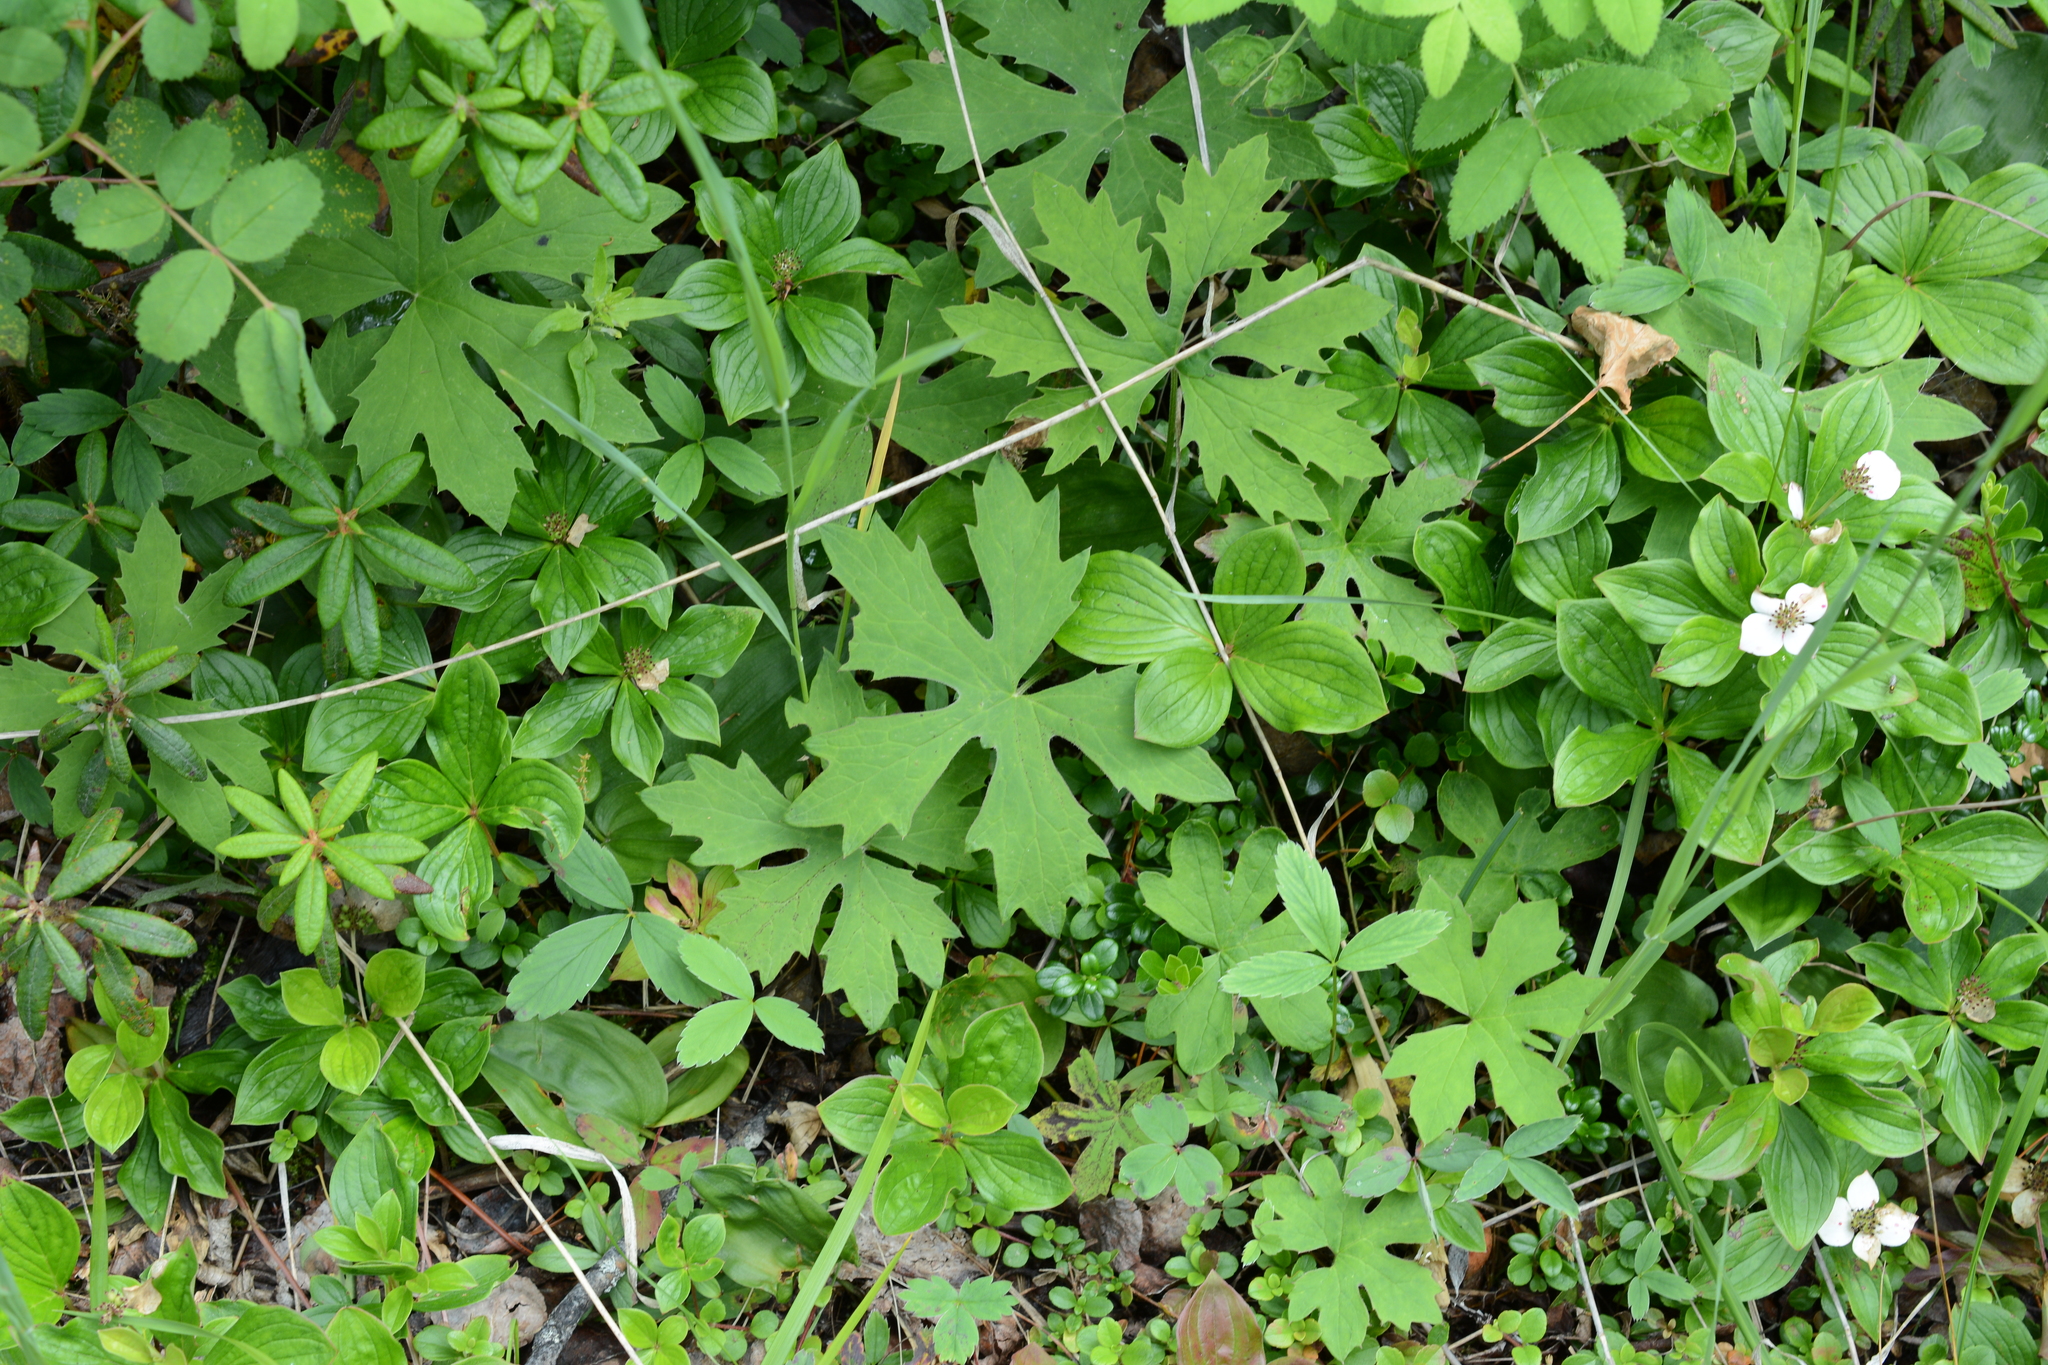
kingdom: Plantae
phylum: Tracheophyta
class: Magnoliopsida
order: Asterales
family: Asteraceae
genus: Petasites
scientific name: Petasites frigidus
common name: Arctic butterbur
